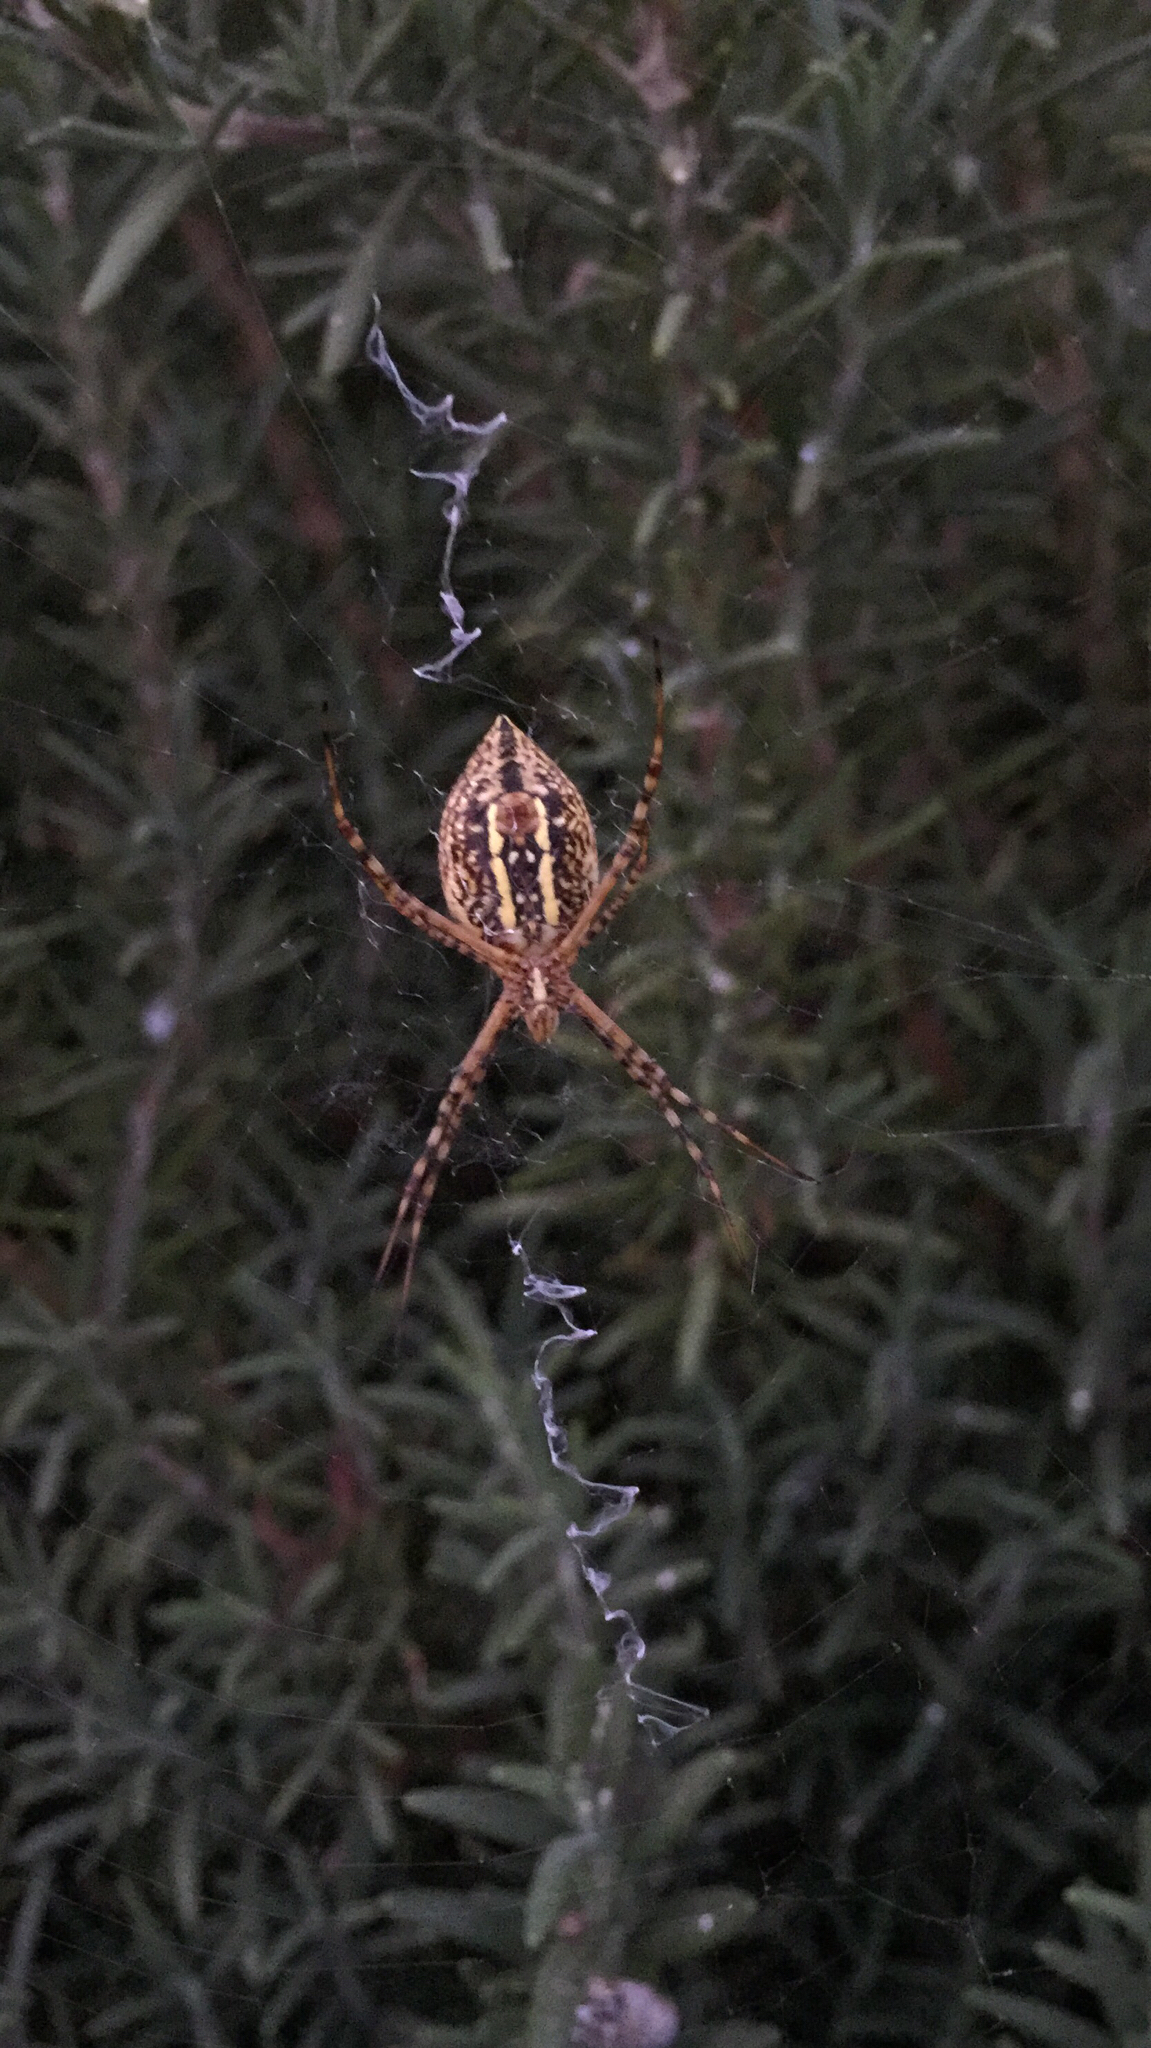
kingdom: Animalia
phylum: Arthropoda
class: Arachnida
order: Araneae
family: Araneidae
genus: Argiope
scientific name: Argiope trifasciata
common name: Banded garden spider
